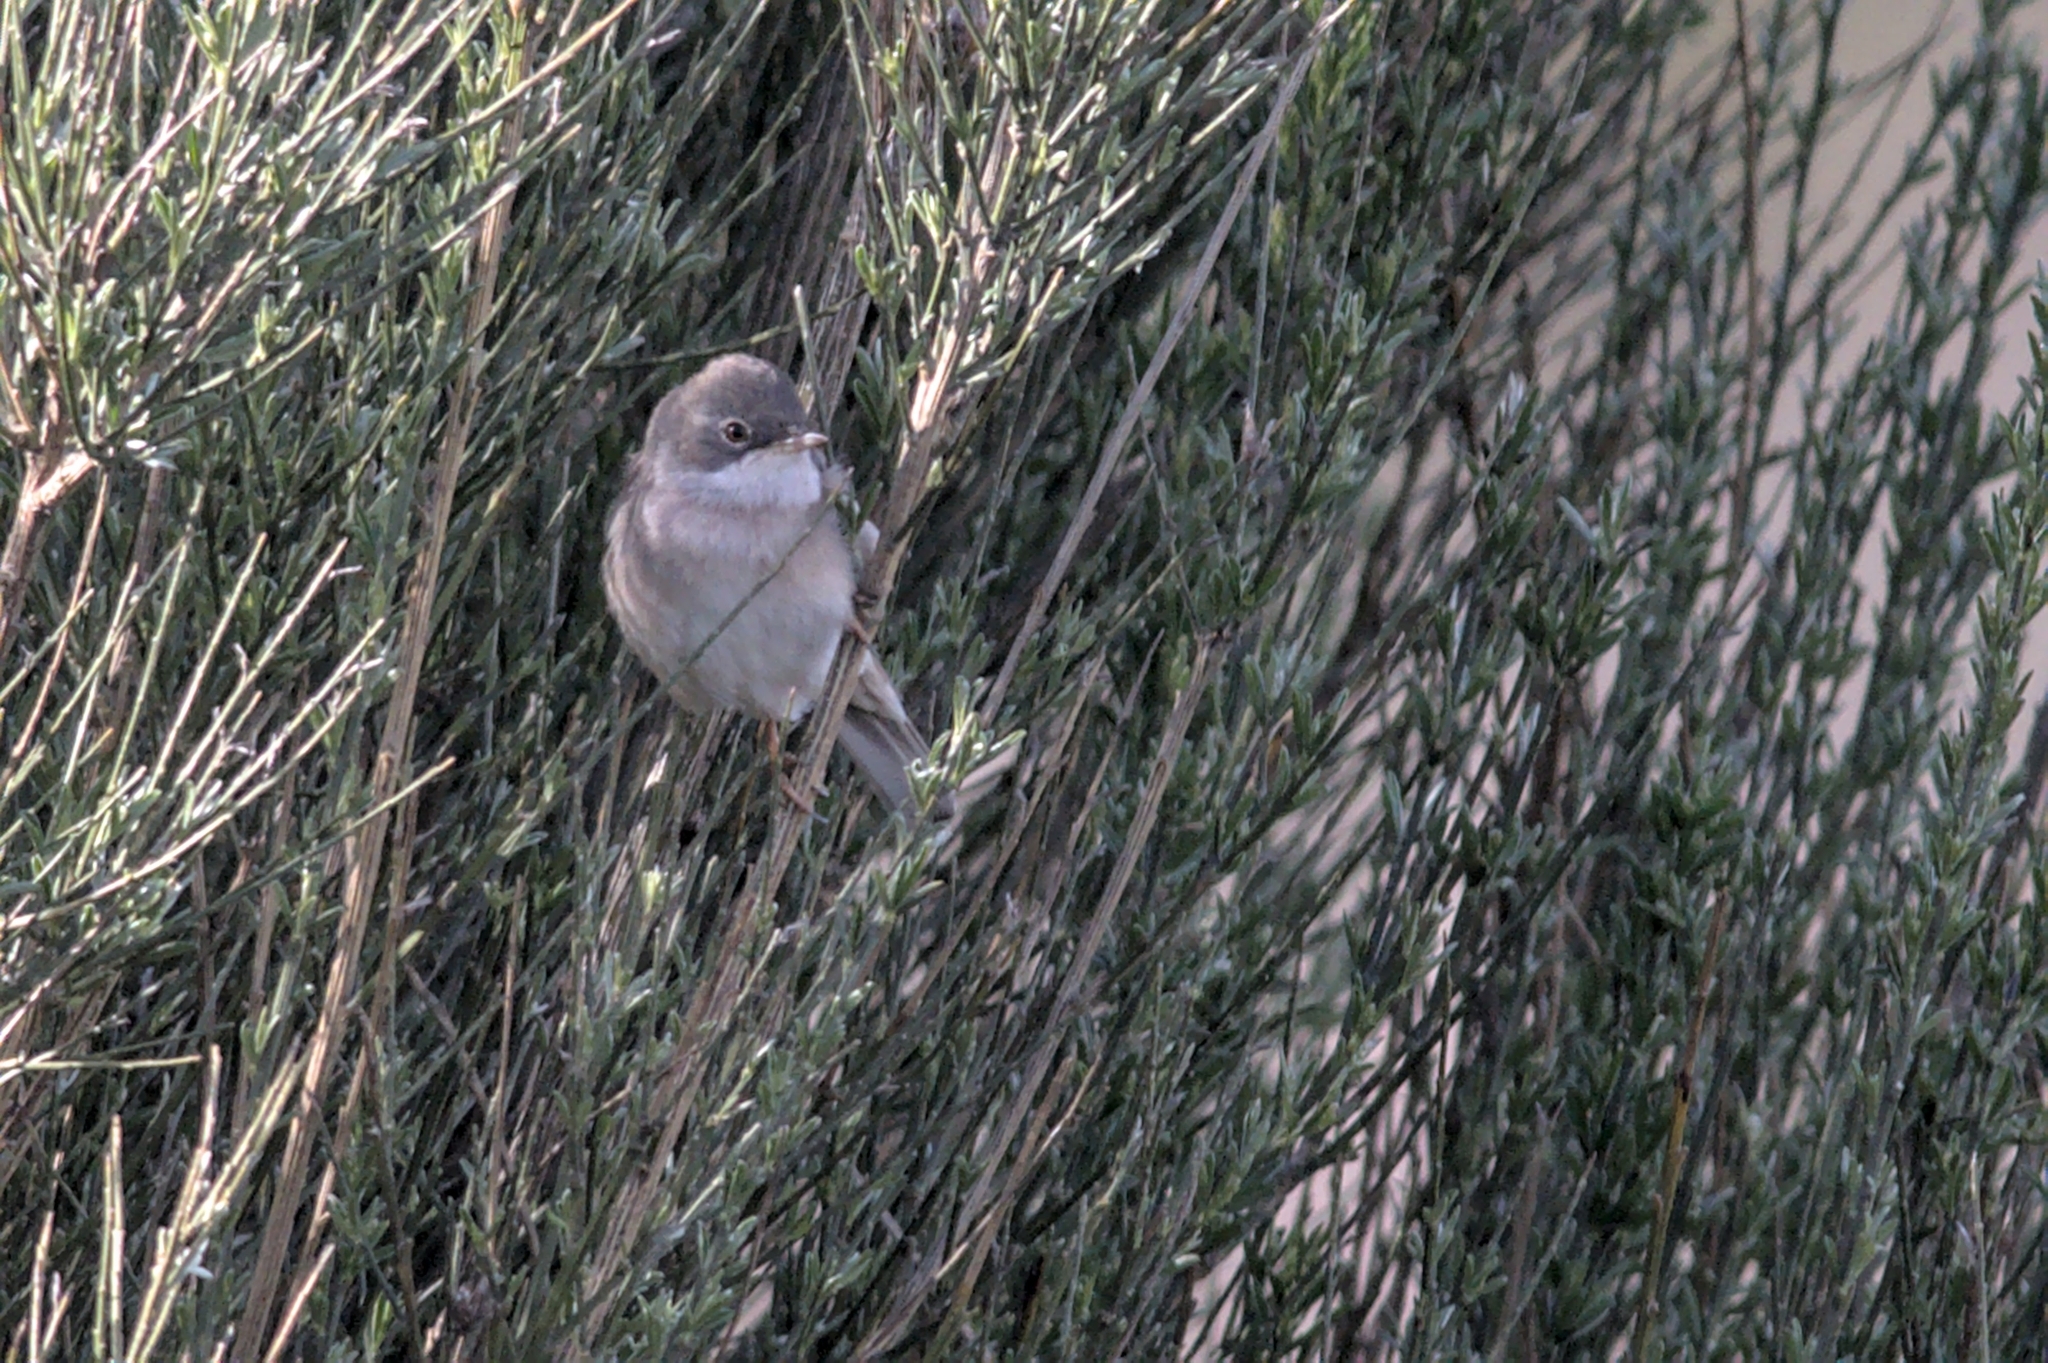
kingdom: Animalia
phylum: Chordata
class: Aves
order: Passeriformes
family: Sylviidae
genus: Sylvia
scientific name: Sylvia communis
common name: Common whitethroat
